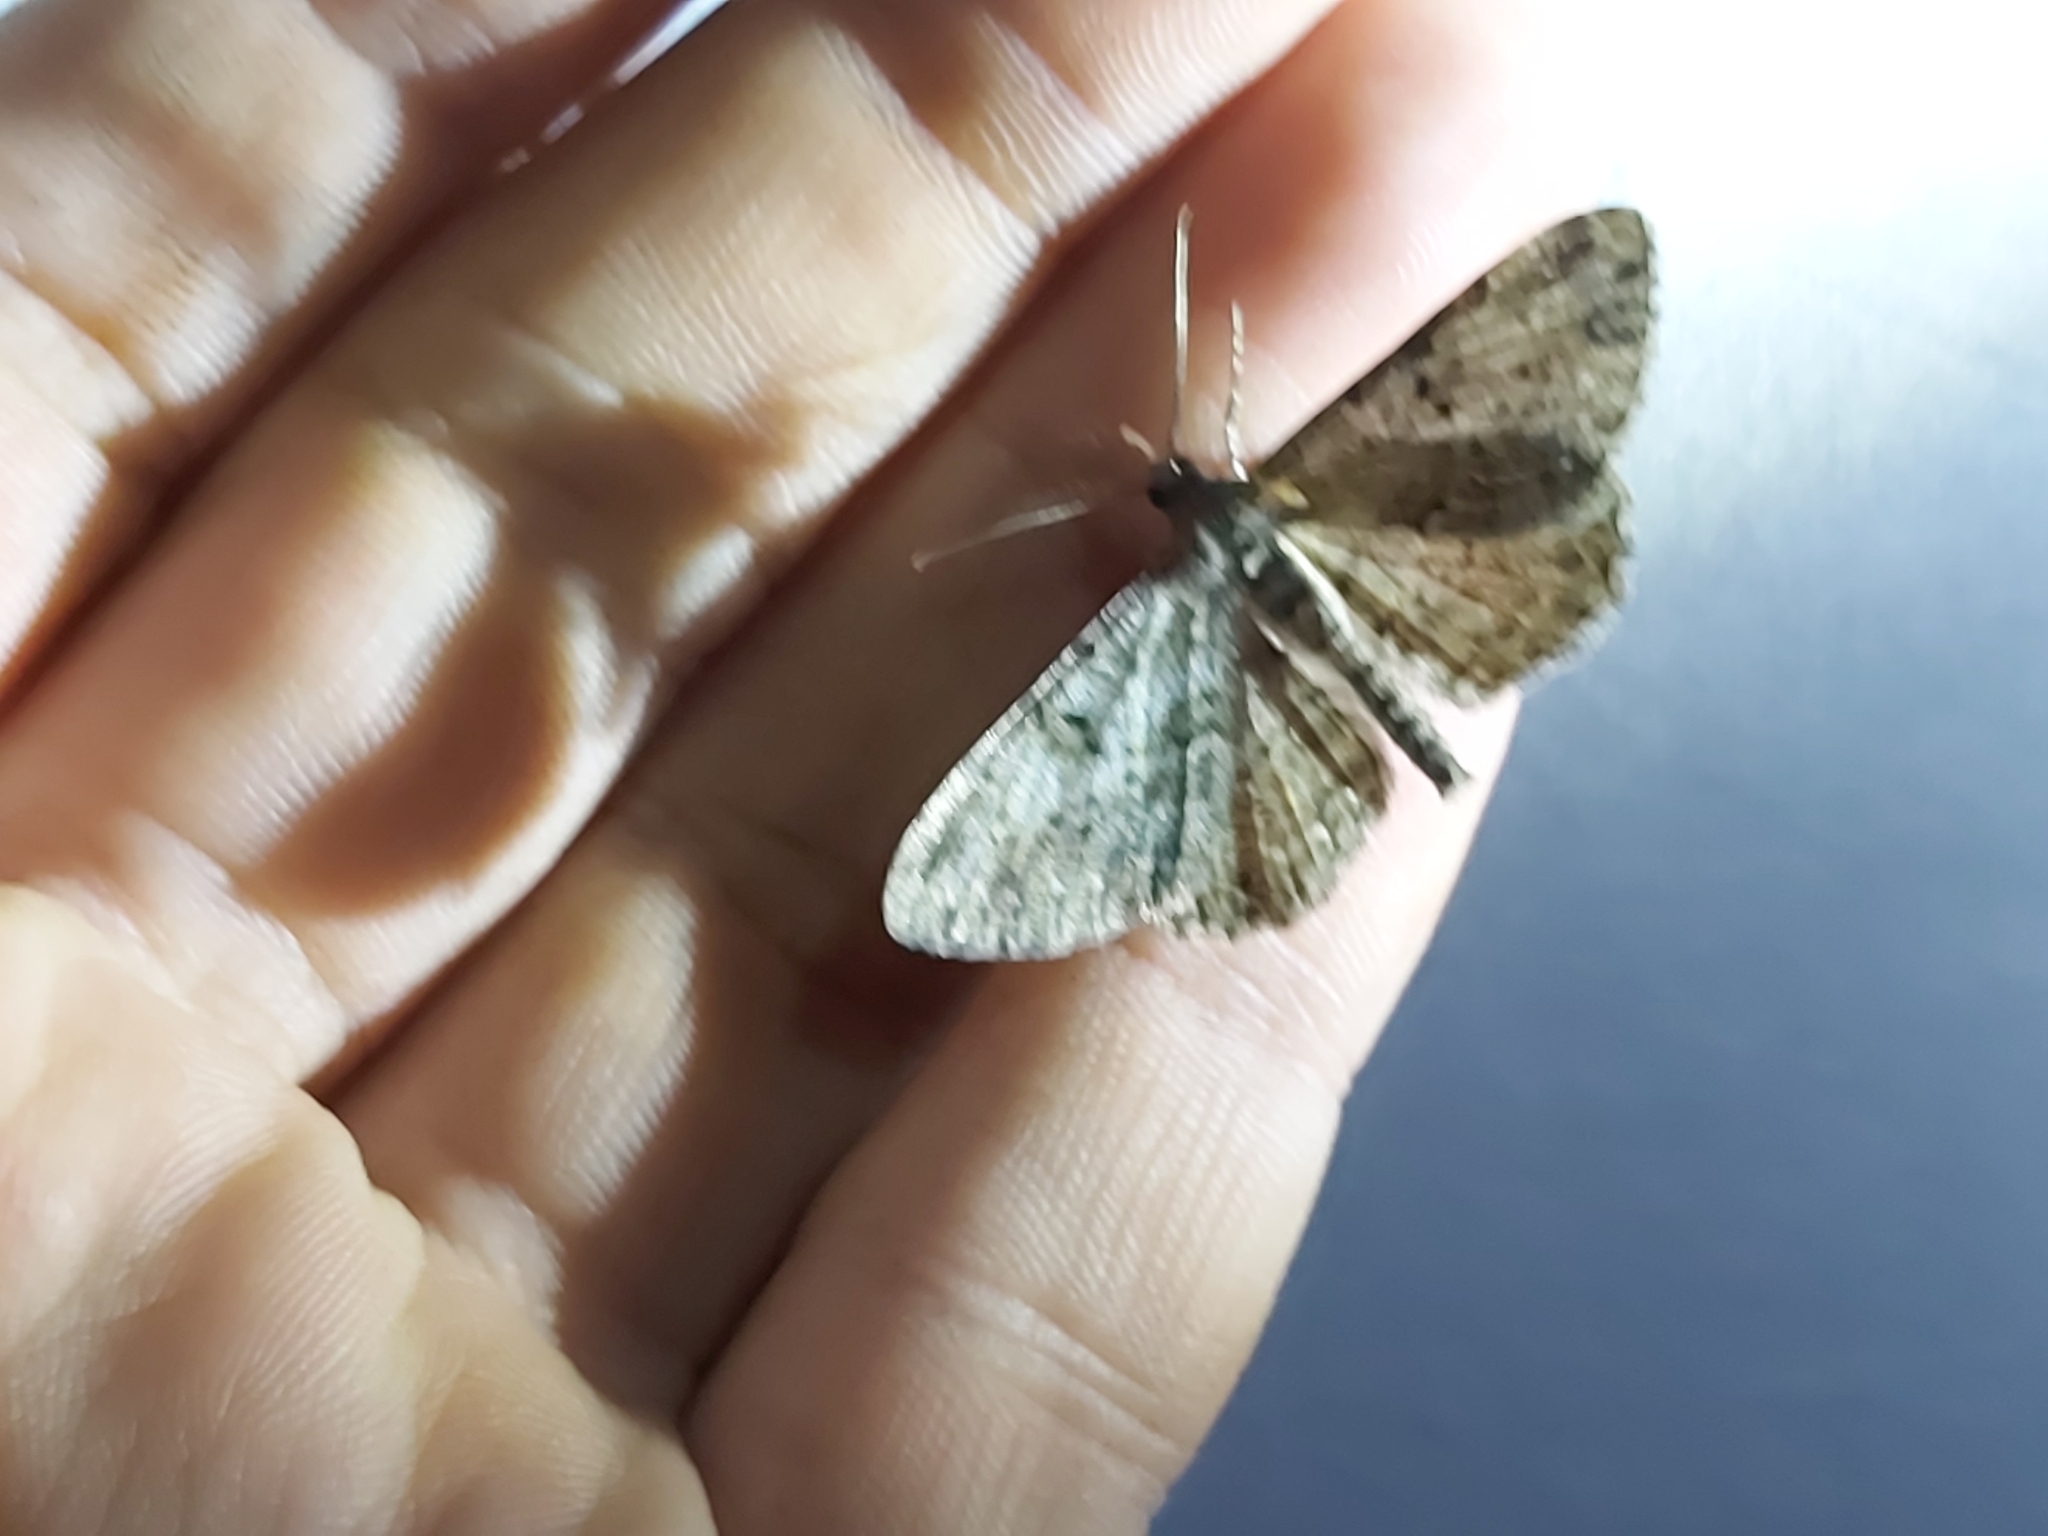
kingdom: Animalia
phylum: Arthropoda
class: Insecta
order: Lepidoptera
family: Geometridae
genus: Peribatodes
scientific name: Peribatodes rhomboidaria
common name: Willow beauty
